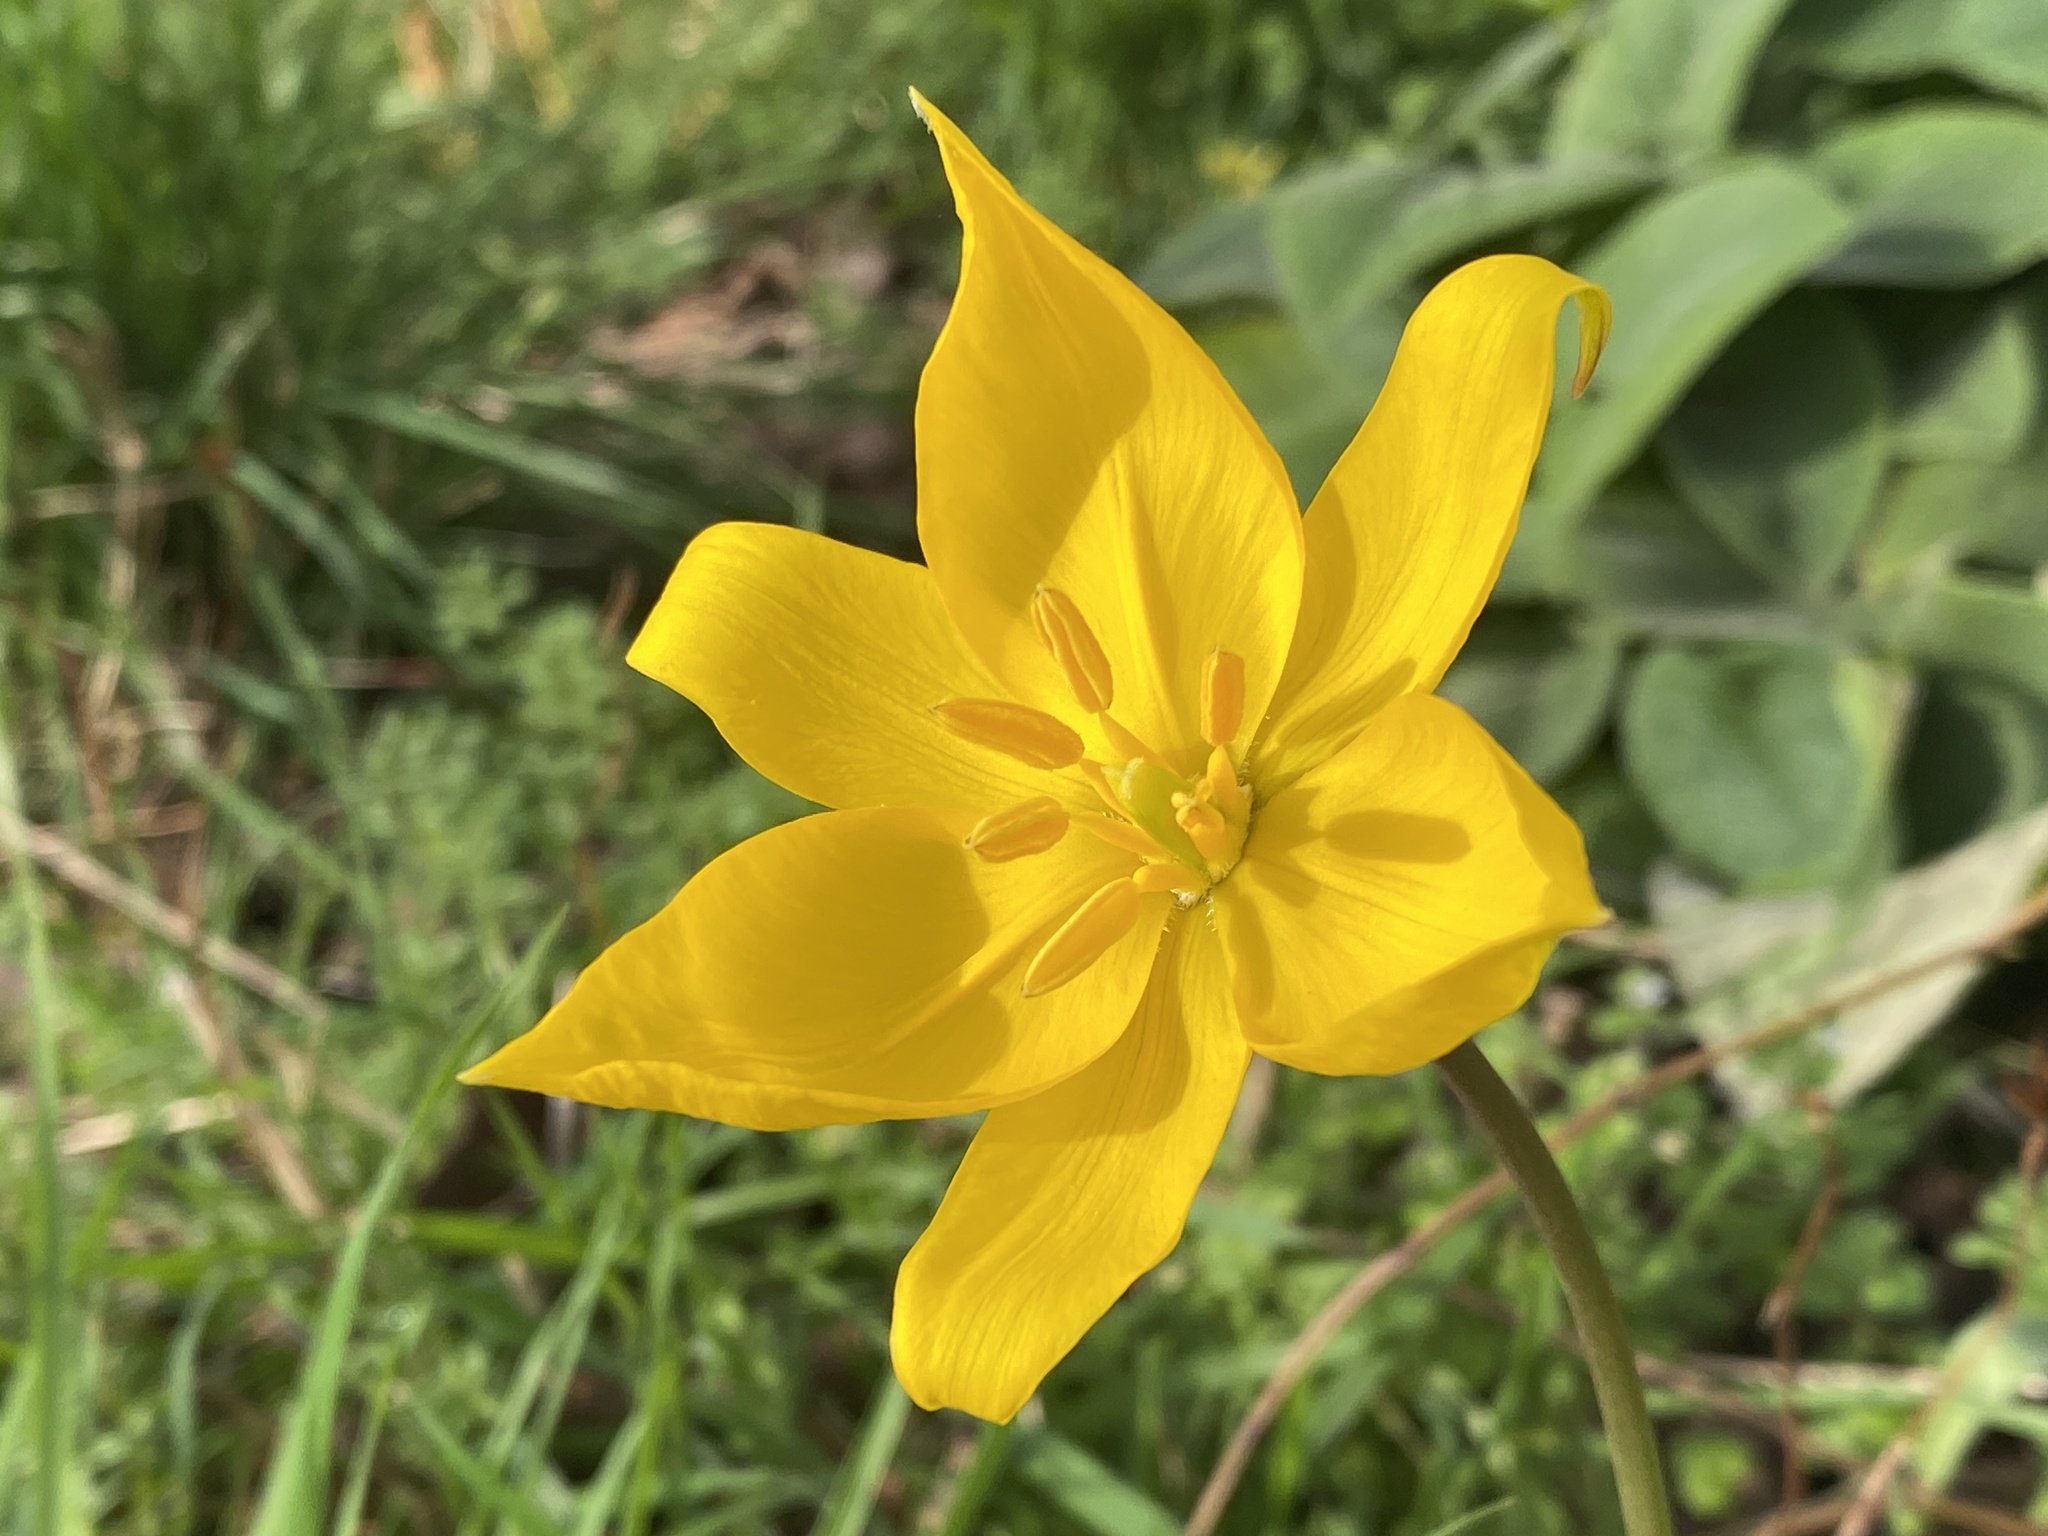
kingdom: Plantae
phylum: Tracheophyta
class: Liliopsida
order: Liliales
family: Liliaceae
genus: Tulipa
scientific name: Tulipa sylvestris
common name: Wild tulip
